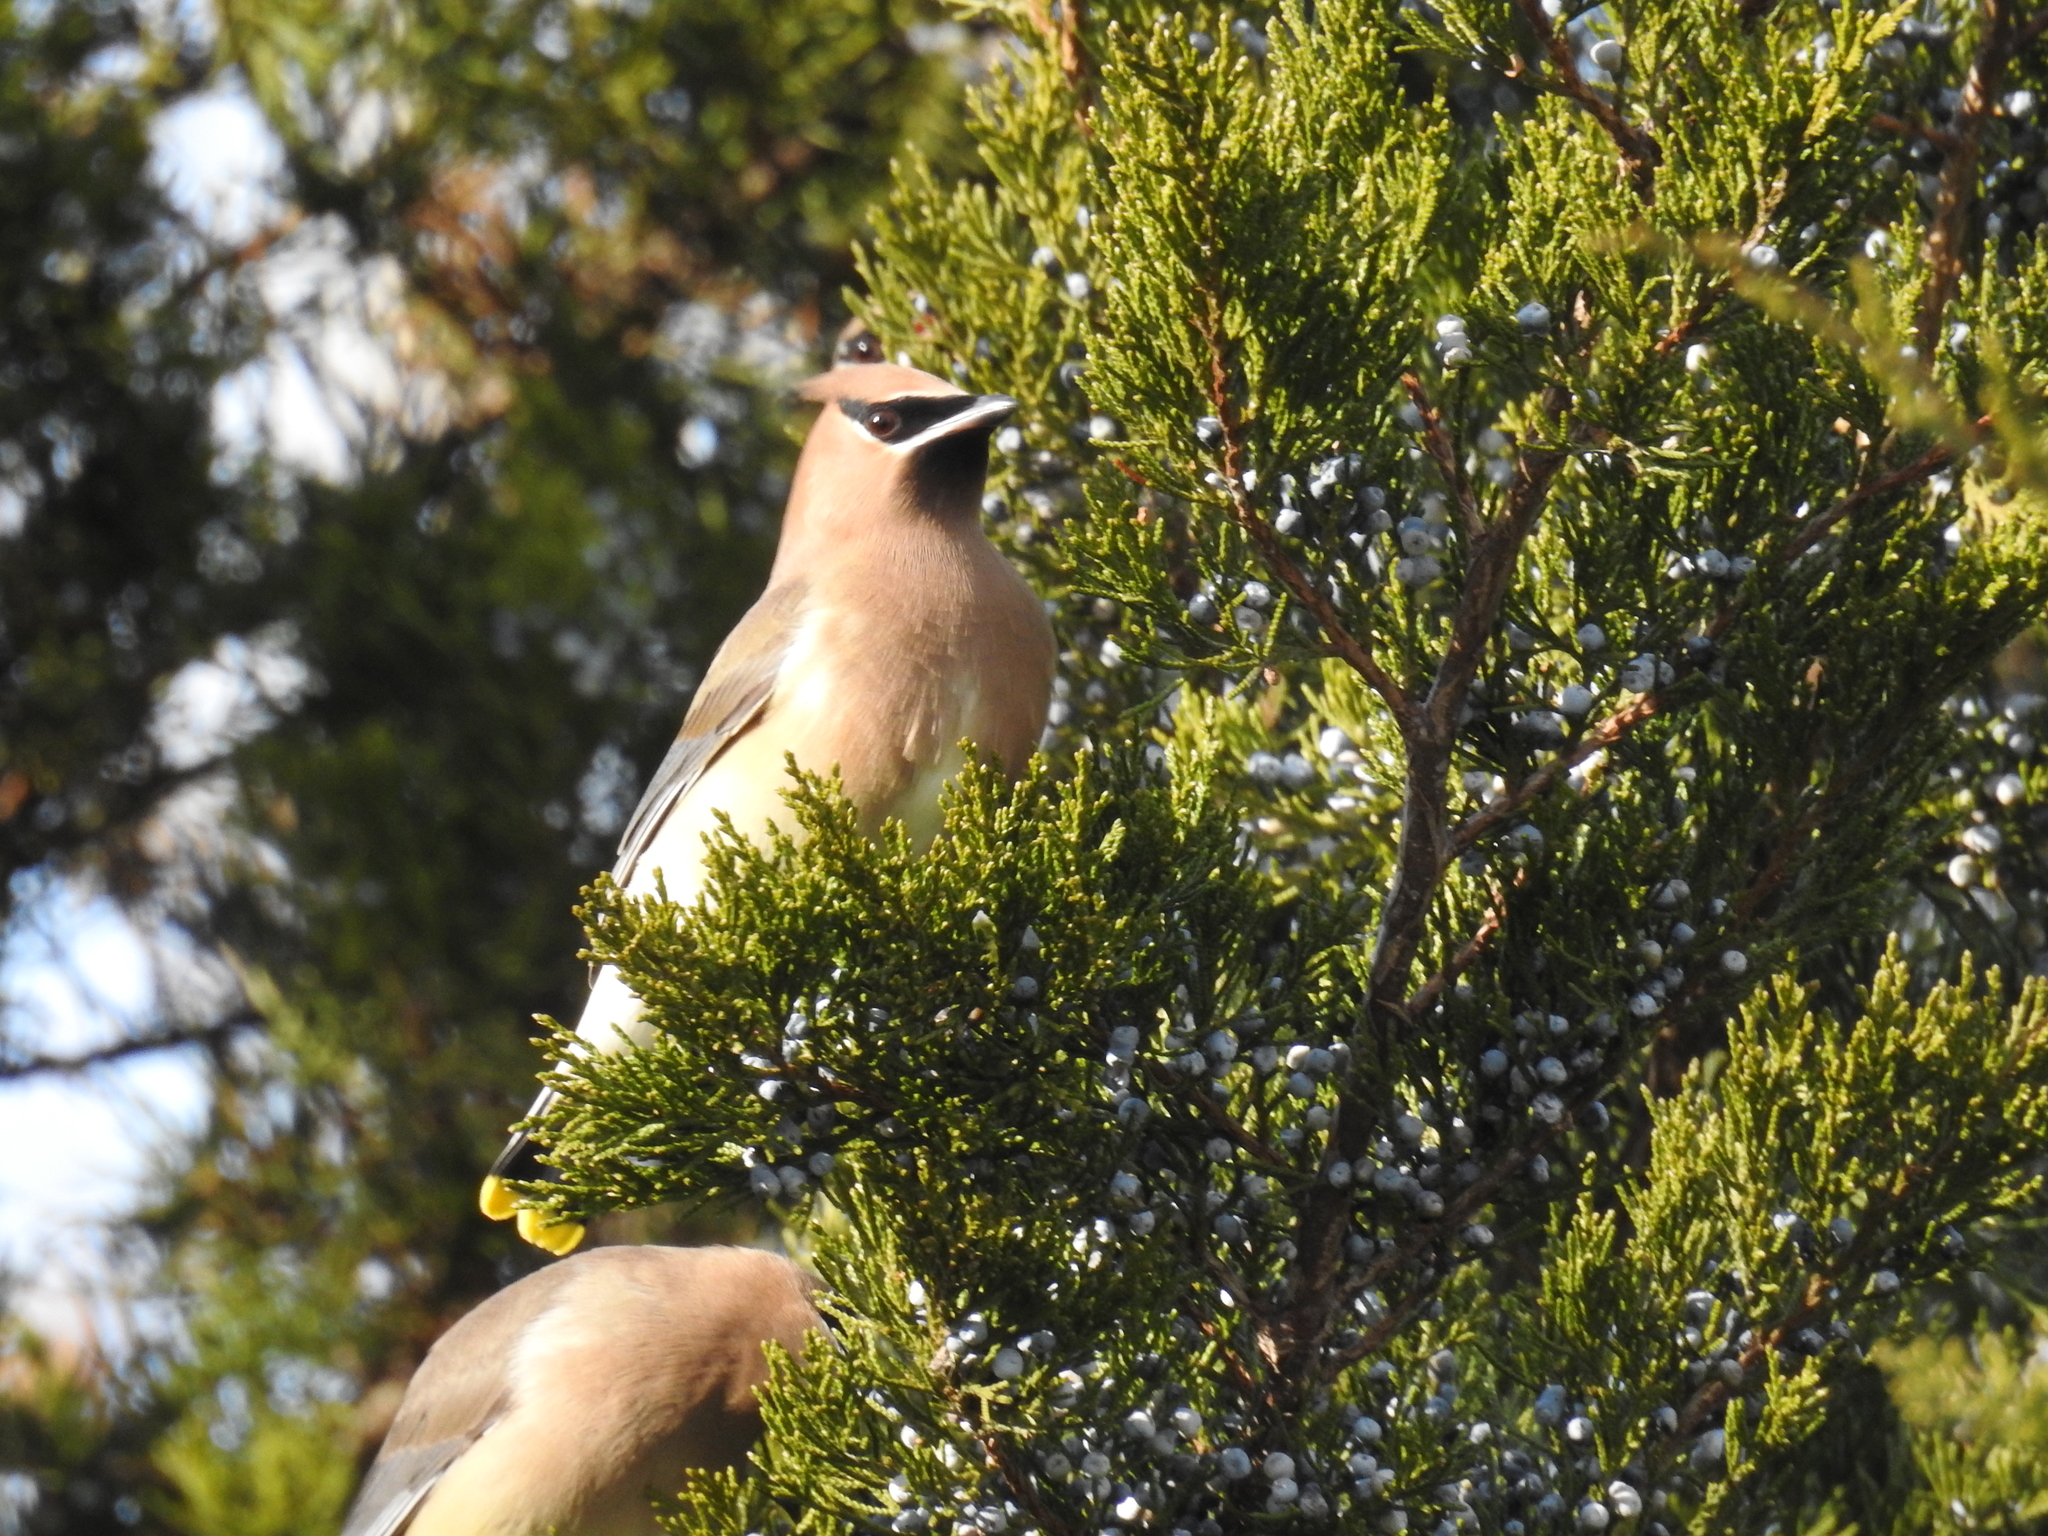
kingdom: Animalia
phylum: Chordata
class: Aves
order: Passeriformes
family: Bombycillidae
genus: Bombycilla
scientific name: Bombycilla cedrorum
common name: Cedar waxwing
